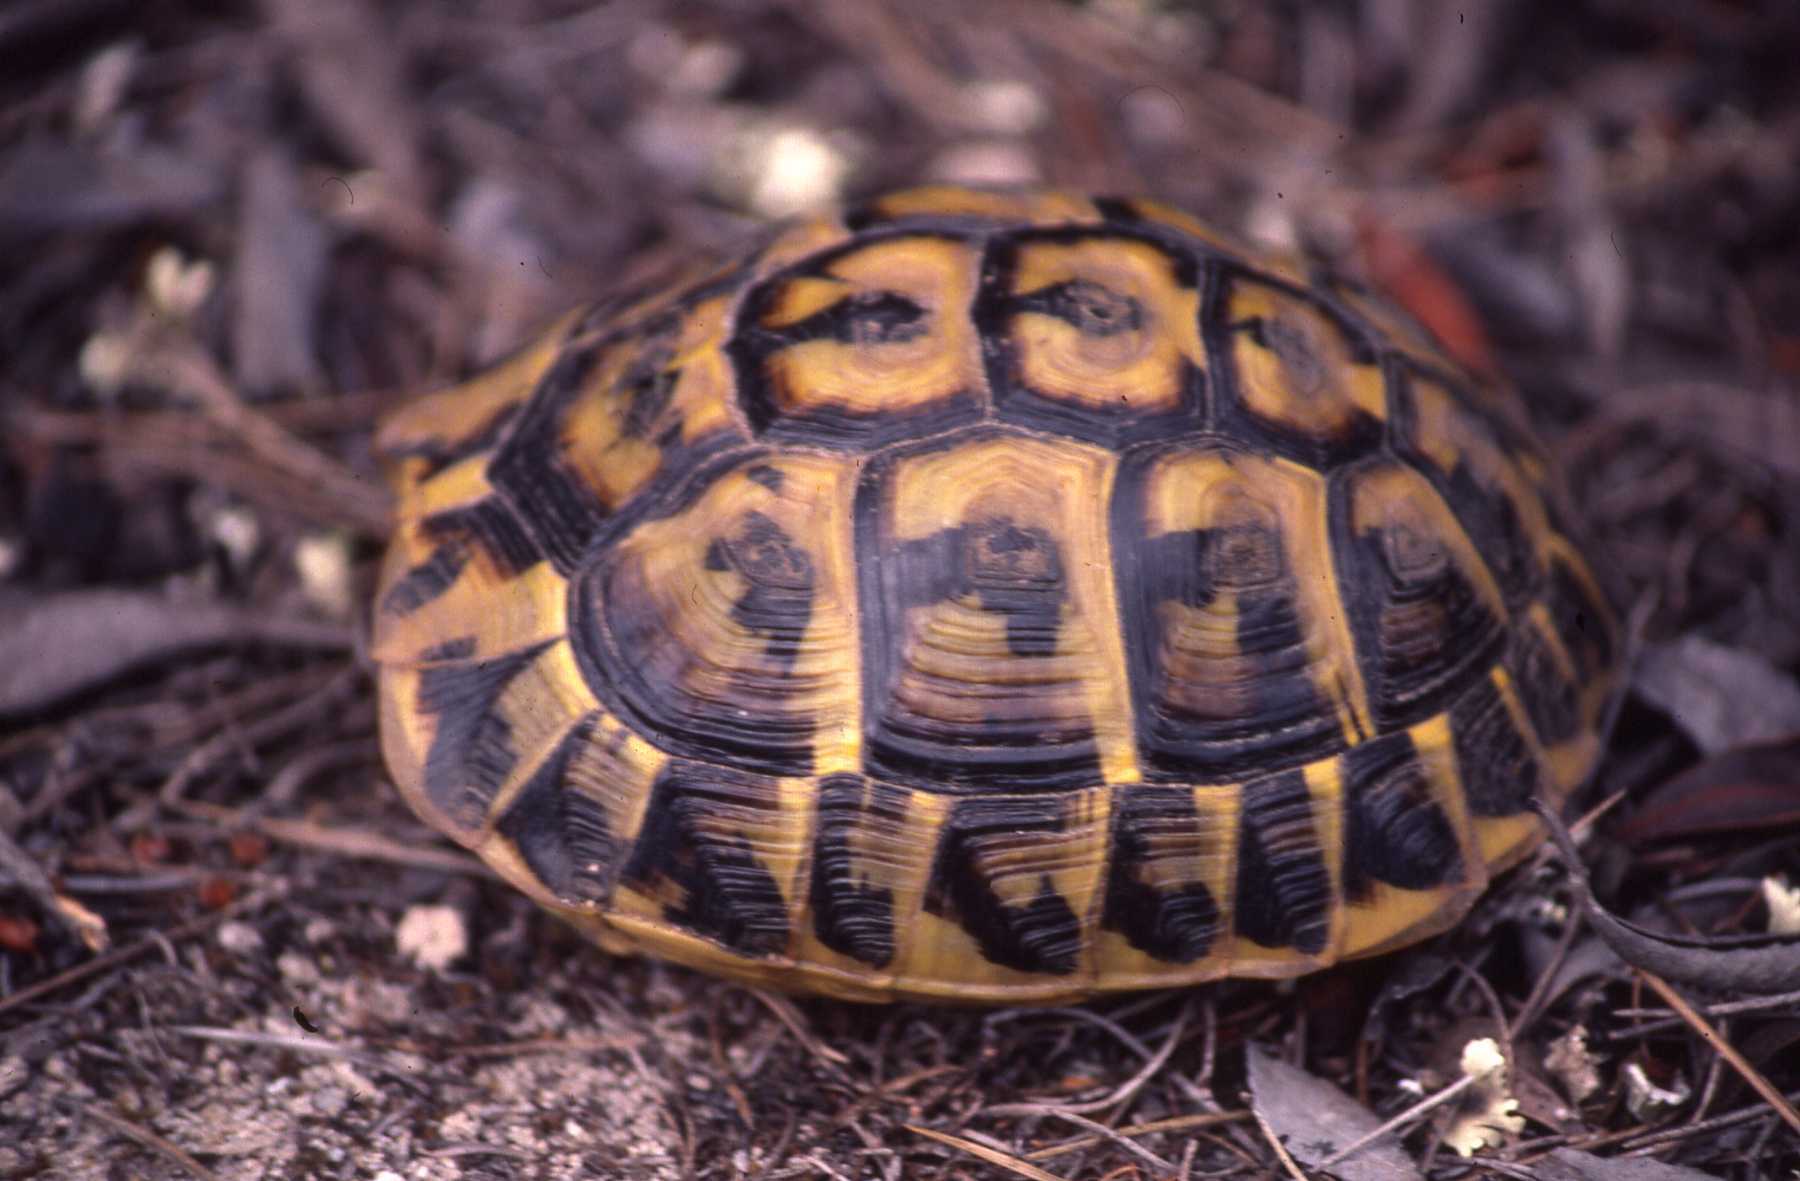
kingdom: Animalia
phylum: Chordata
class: Testudines
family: Testudinidae
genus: Testudo
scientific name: Testudo hermanni
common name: Hermann's tortoise
